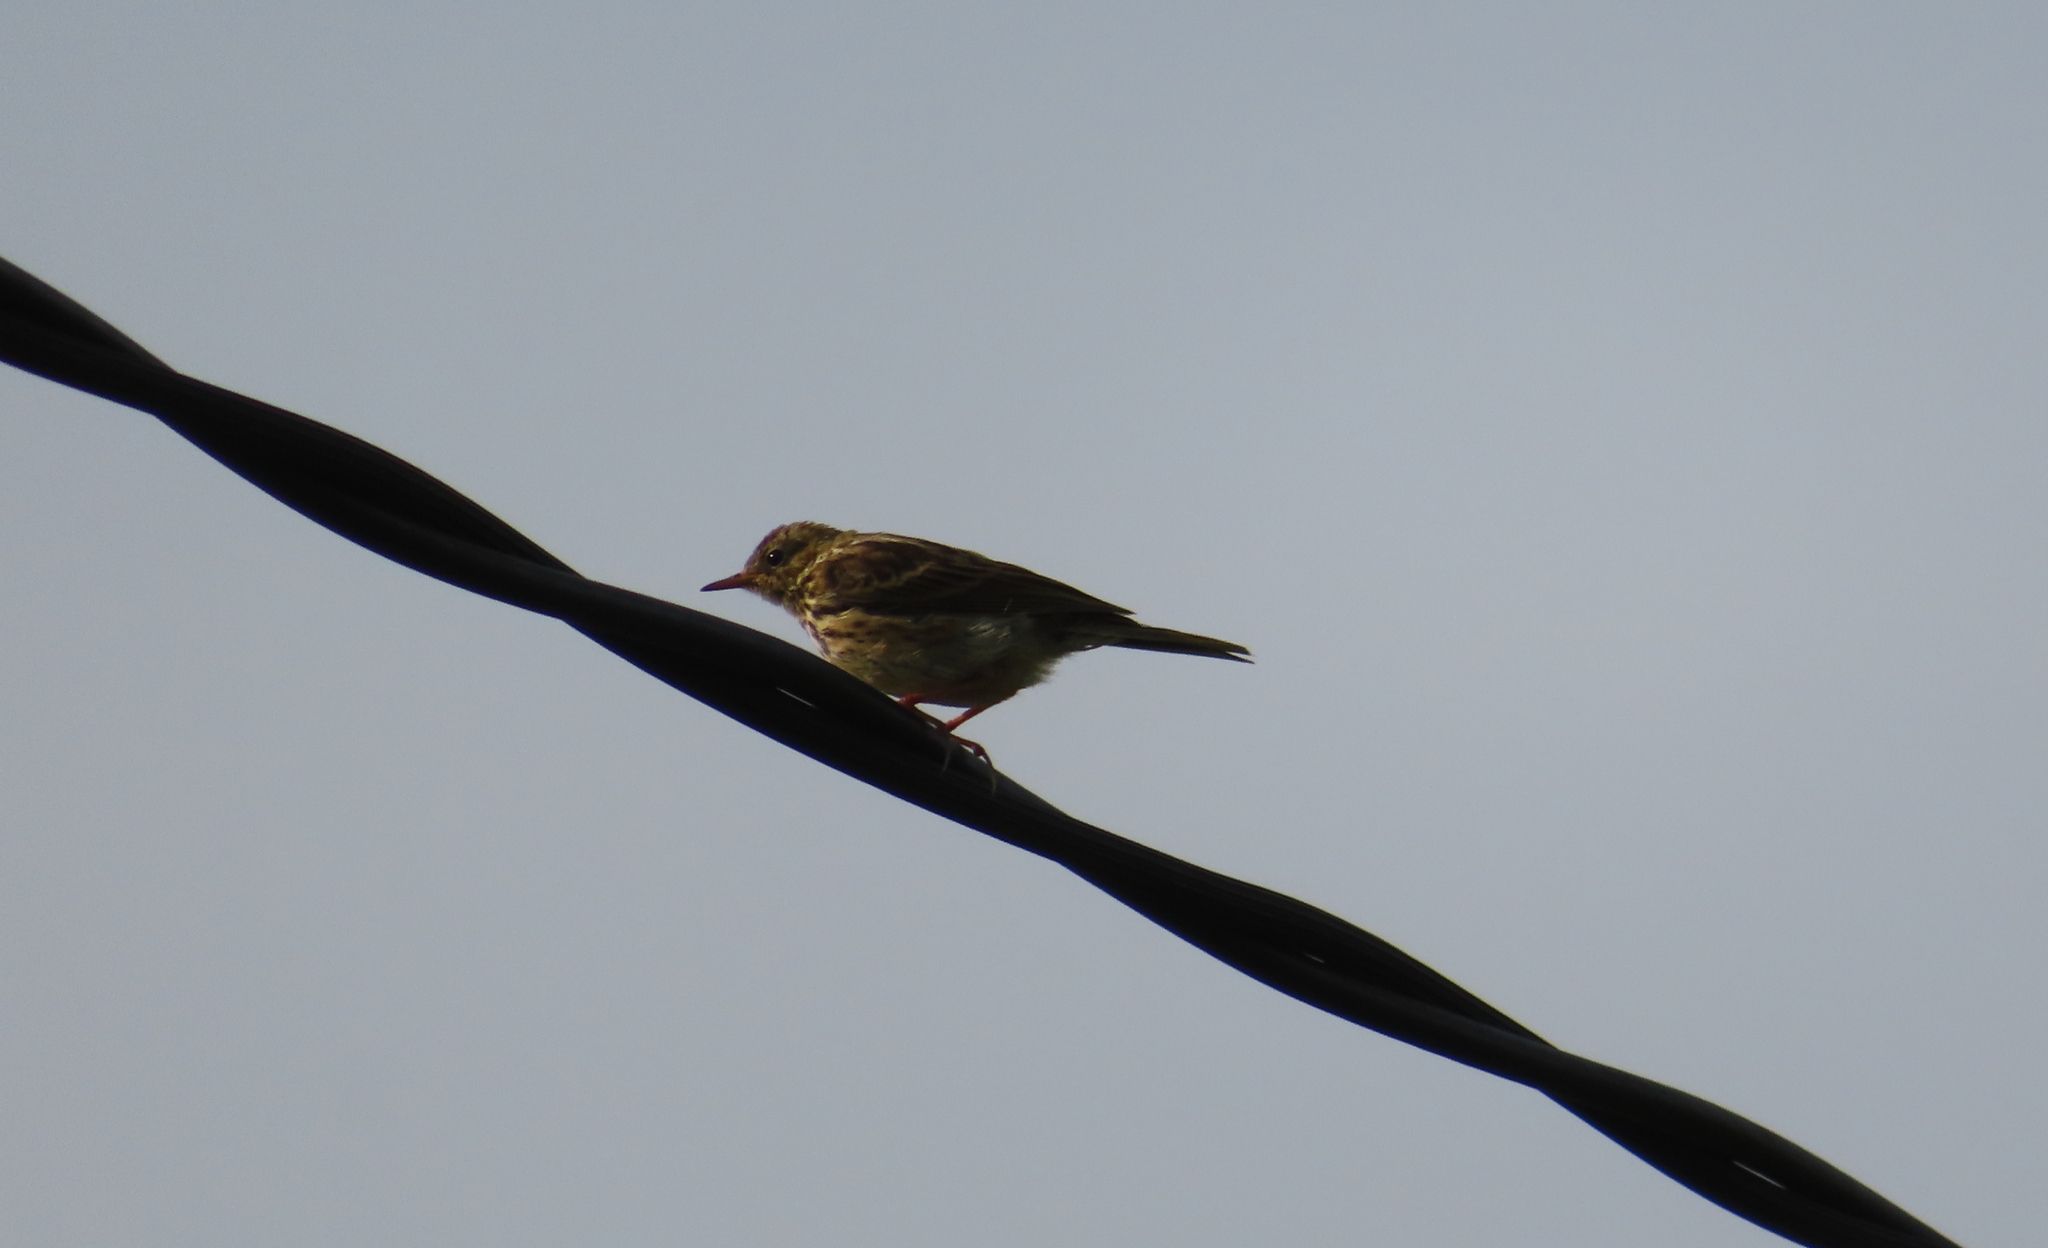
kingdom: Animalia
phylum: Chordata
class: Aves
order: Passeriformes
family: Motacillidae
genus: Anthus
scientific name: Anthus pratensis
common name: Meadow pipit
